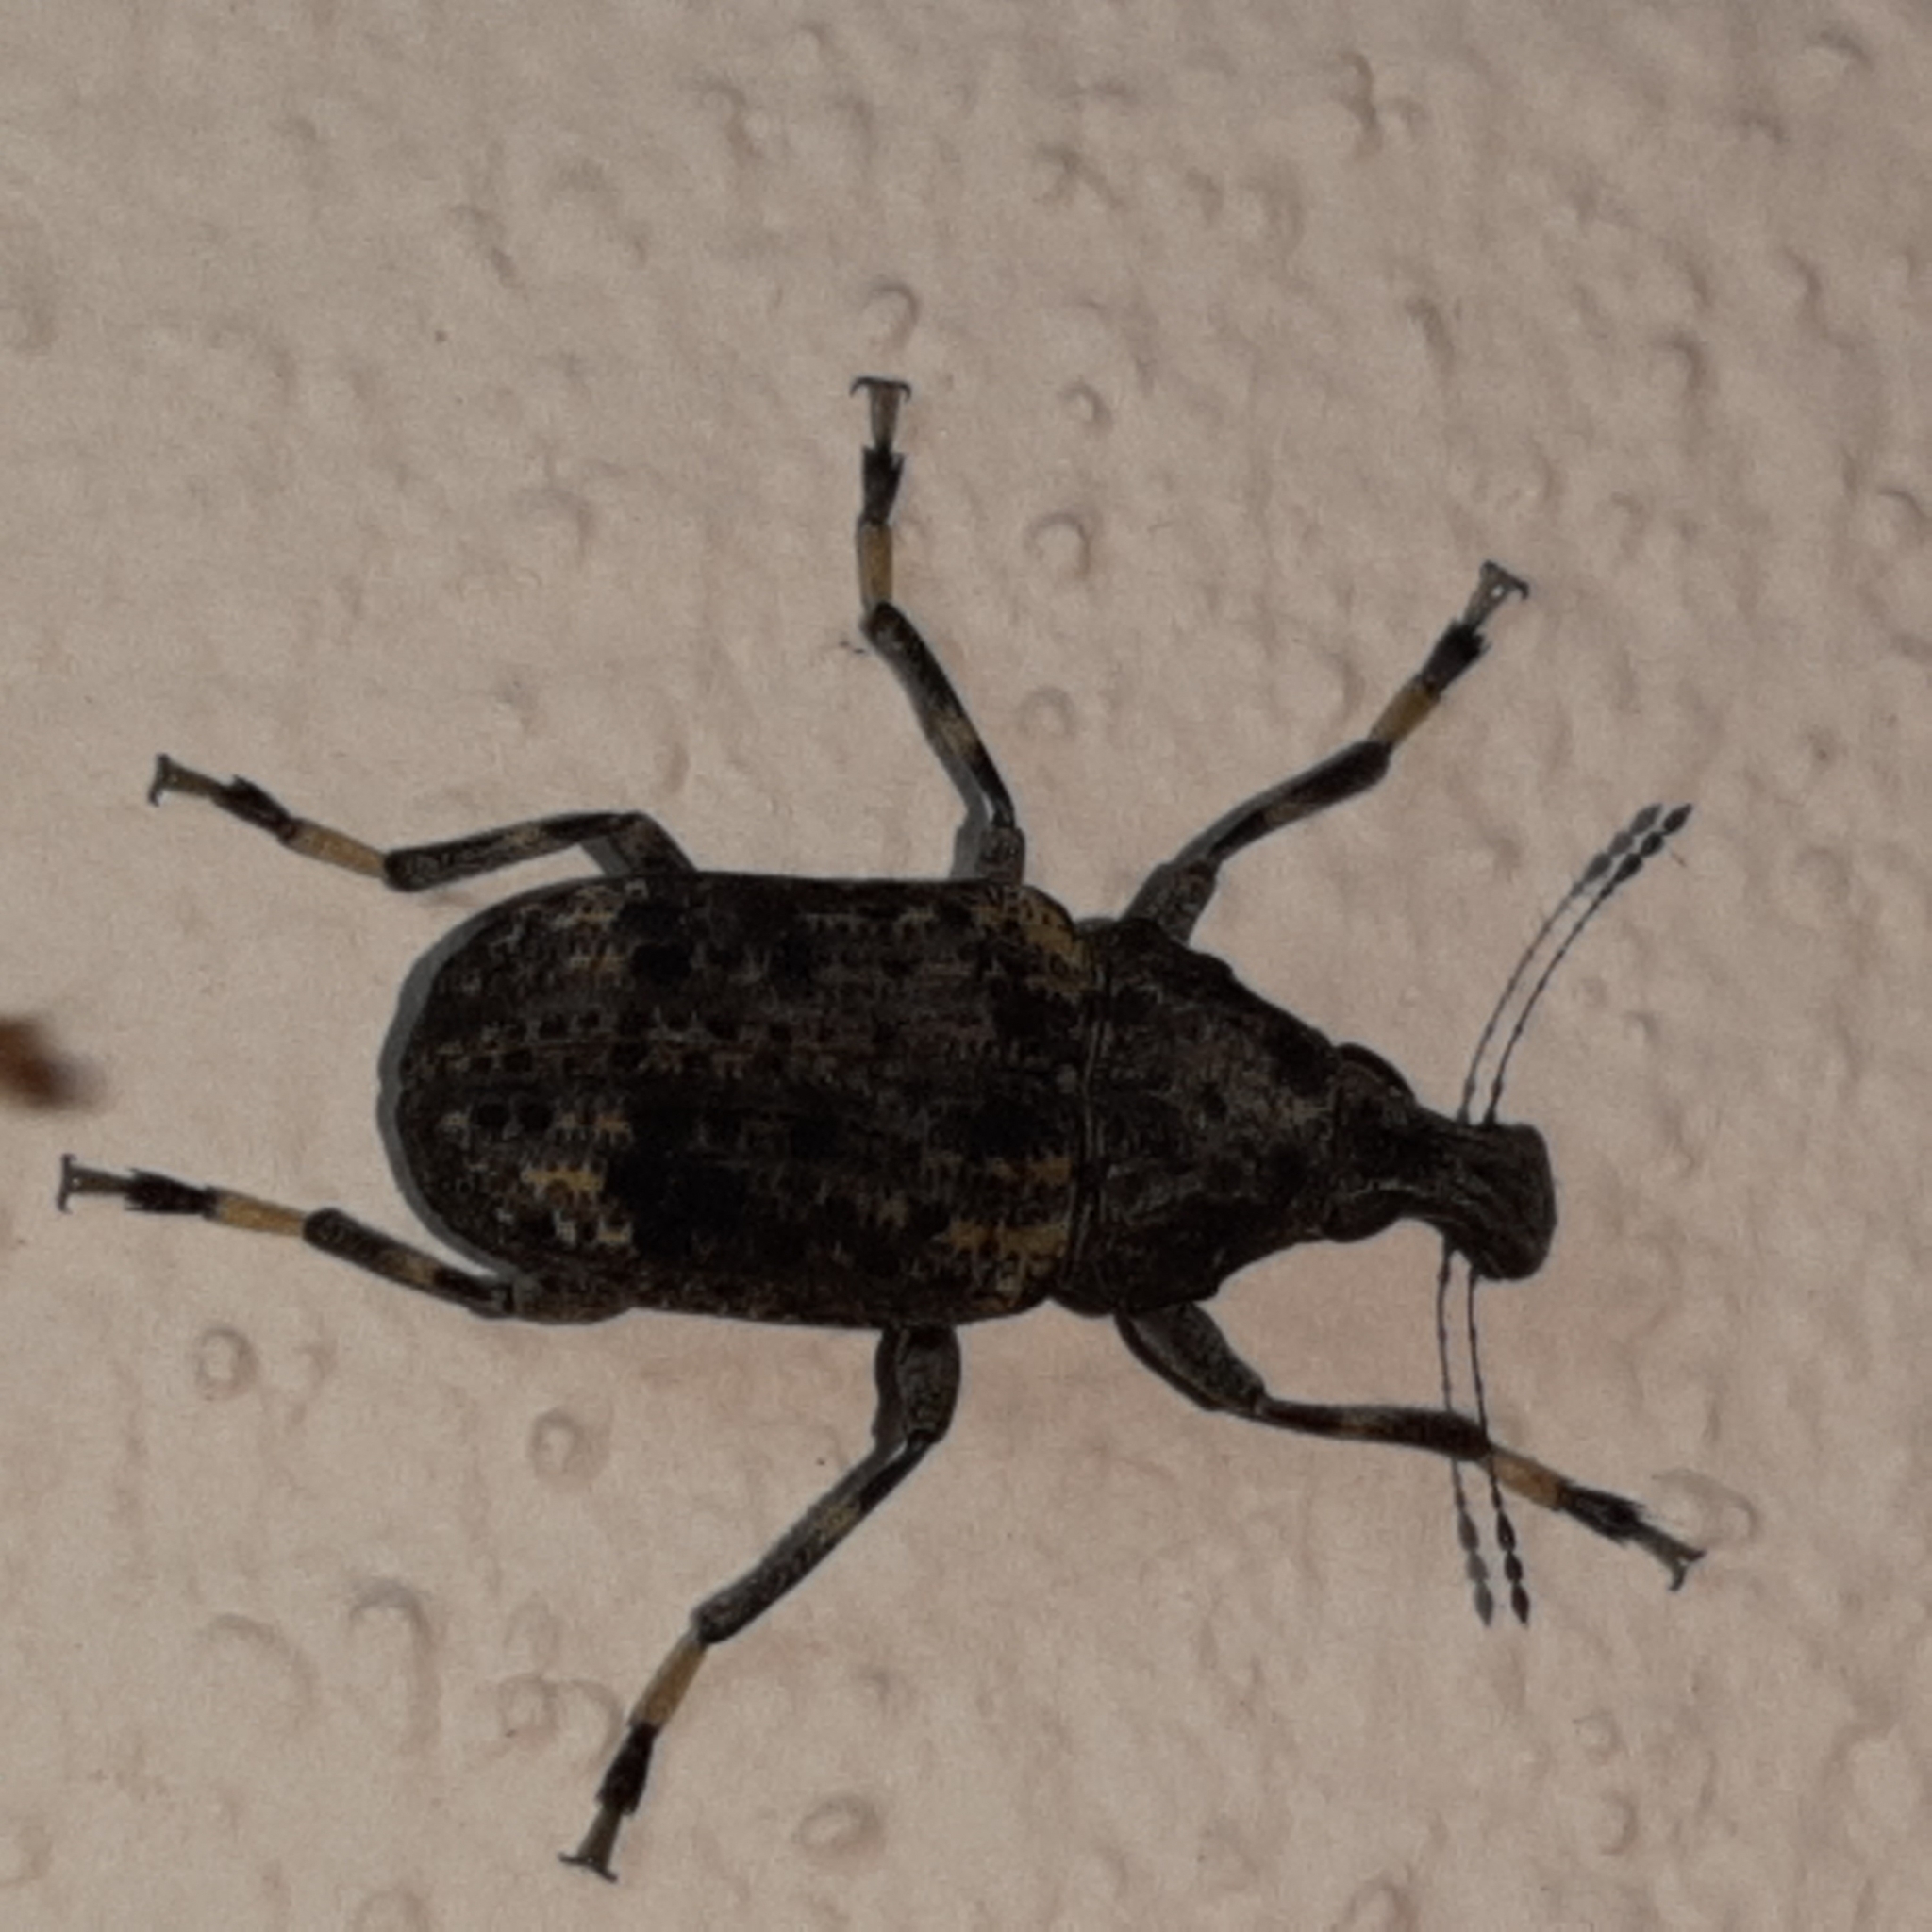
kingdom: Animalia
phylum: Arthropoda
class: Insecta
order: Coleoptera
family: Anthribidae
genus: Stenocerus
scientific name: Stenocerus longulus
